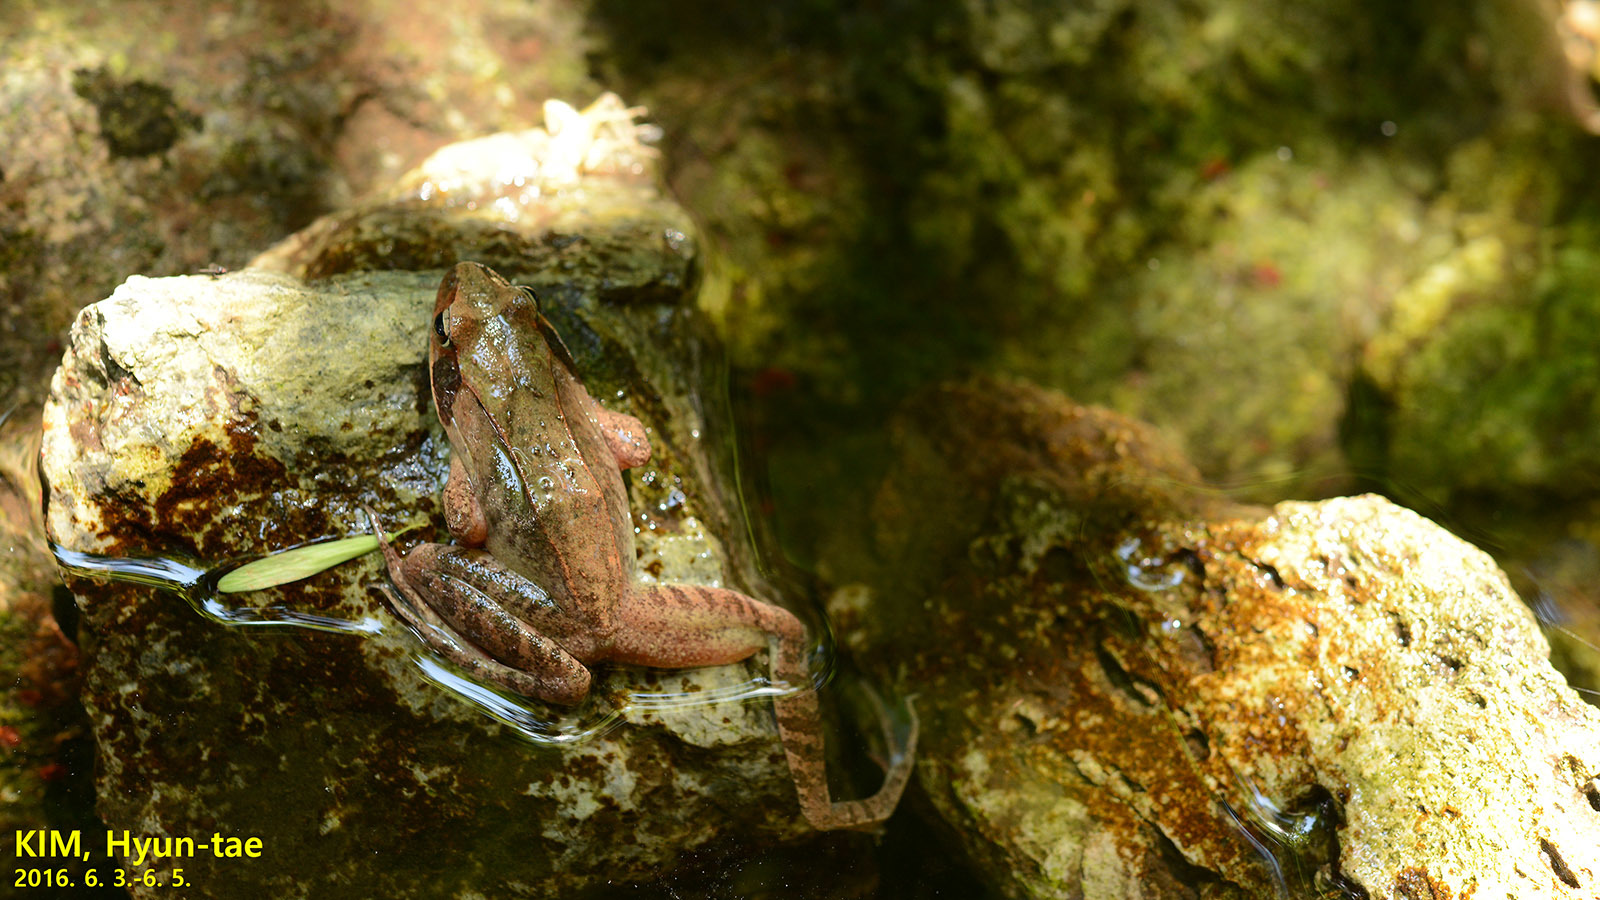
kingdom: Animalia
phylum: Chordata
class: Amphibia
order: Anura
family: Ranidae
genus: Rana
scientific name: Rana uenoi
